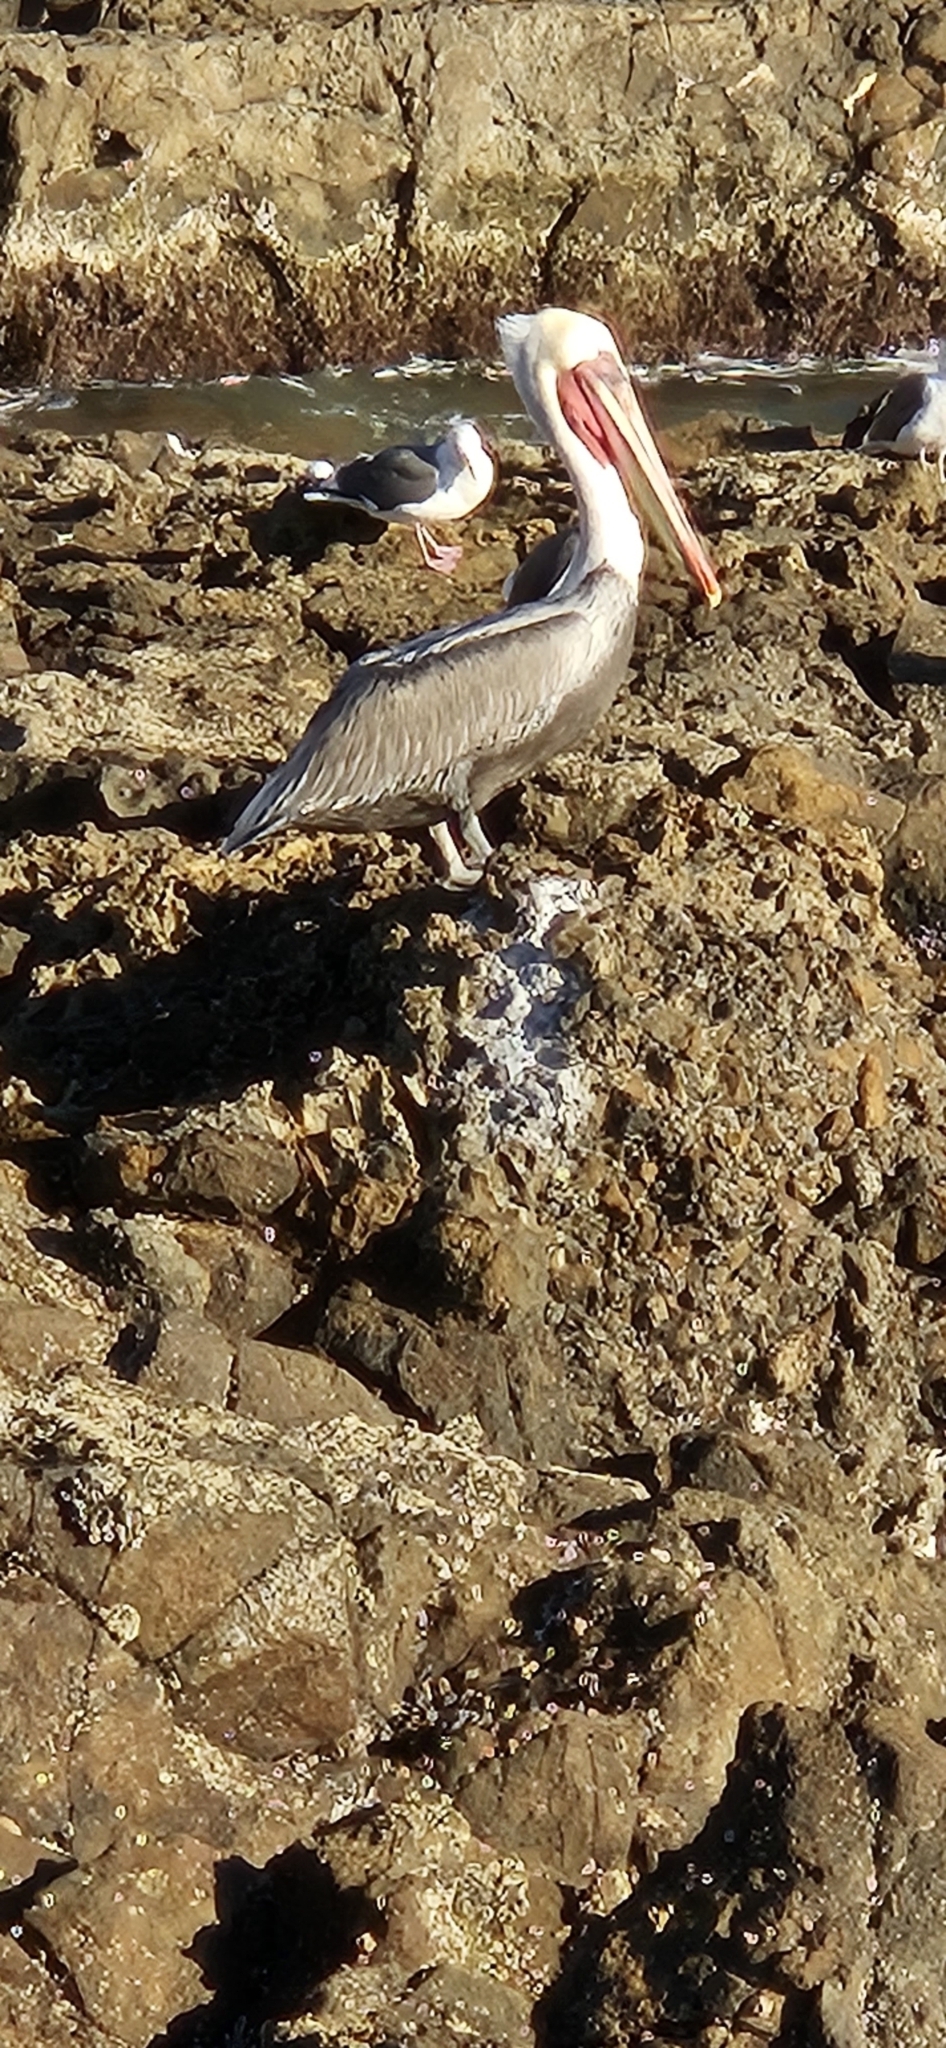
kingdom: Animalia
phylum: Chordata
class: Aves
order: Pelecaniformes
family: Pelecanidae
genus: Pelecanus
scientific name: Pelecanus occidentalis
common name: Brown pelican
